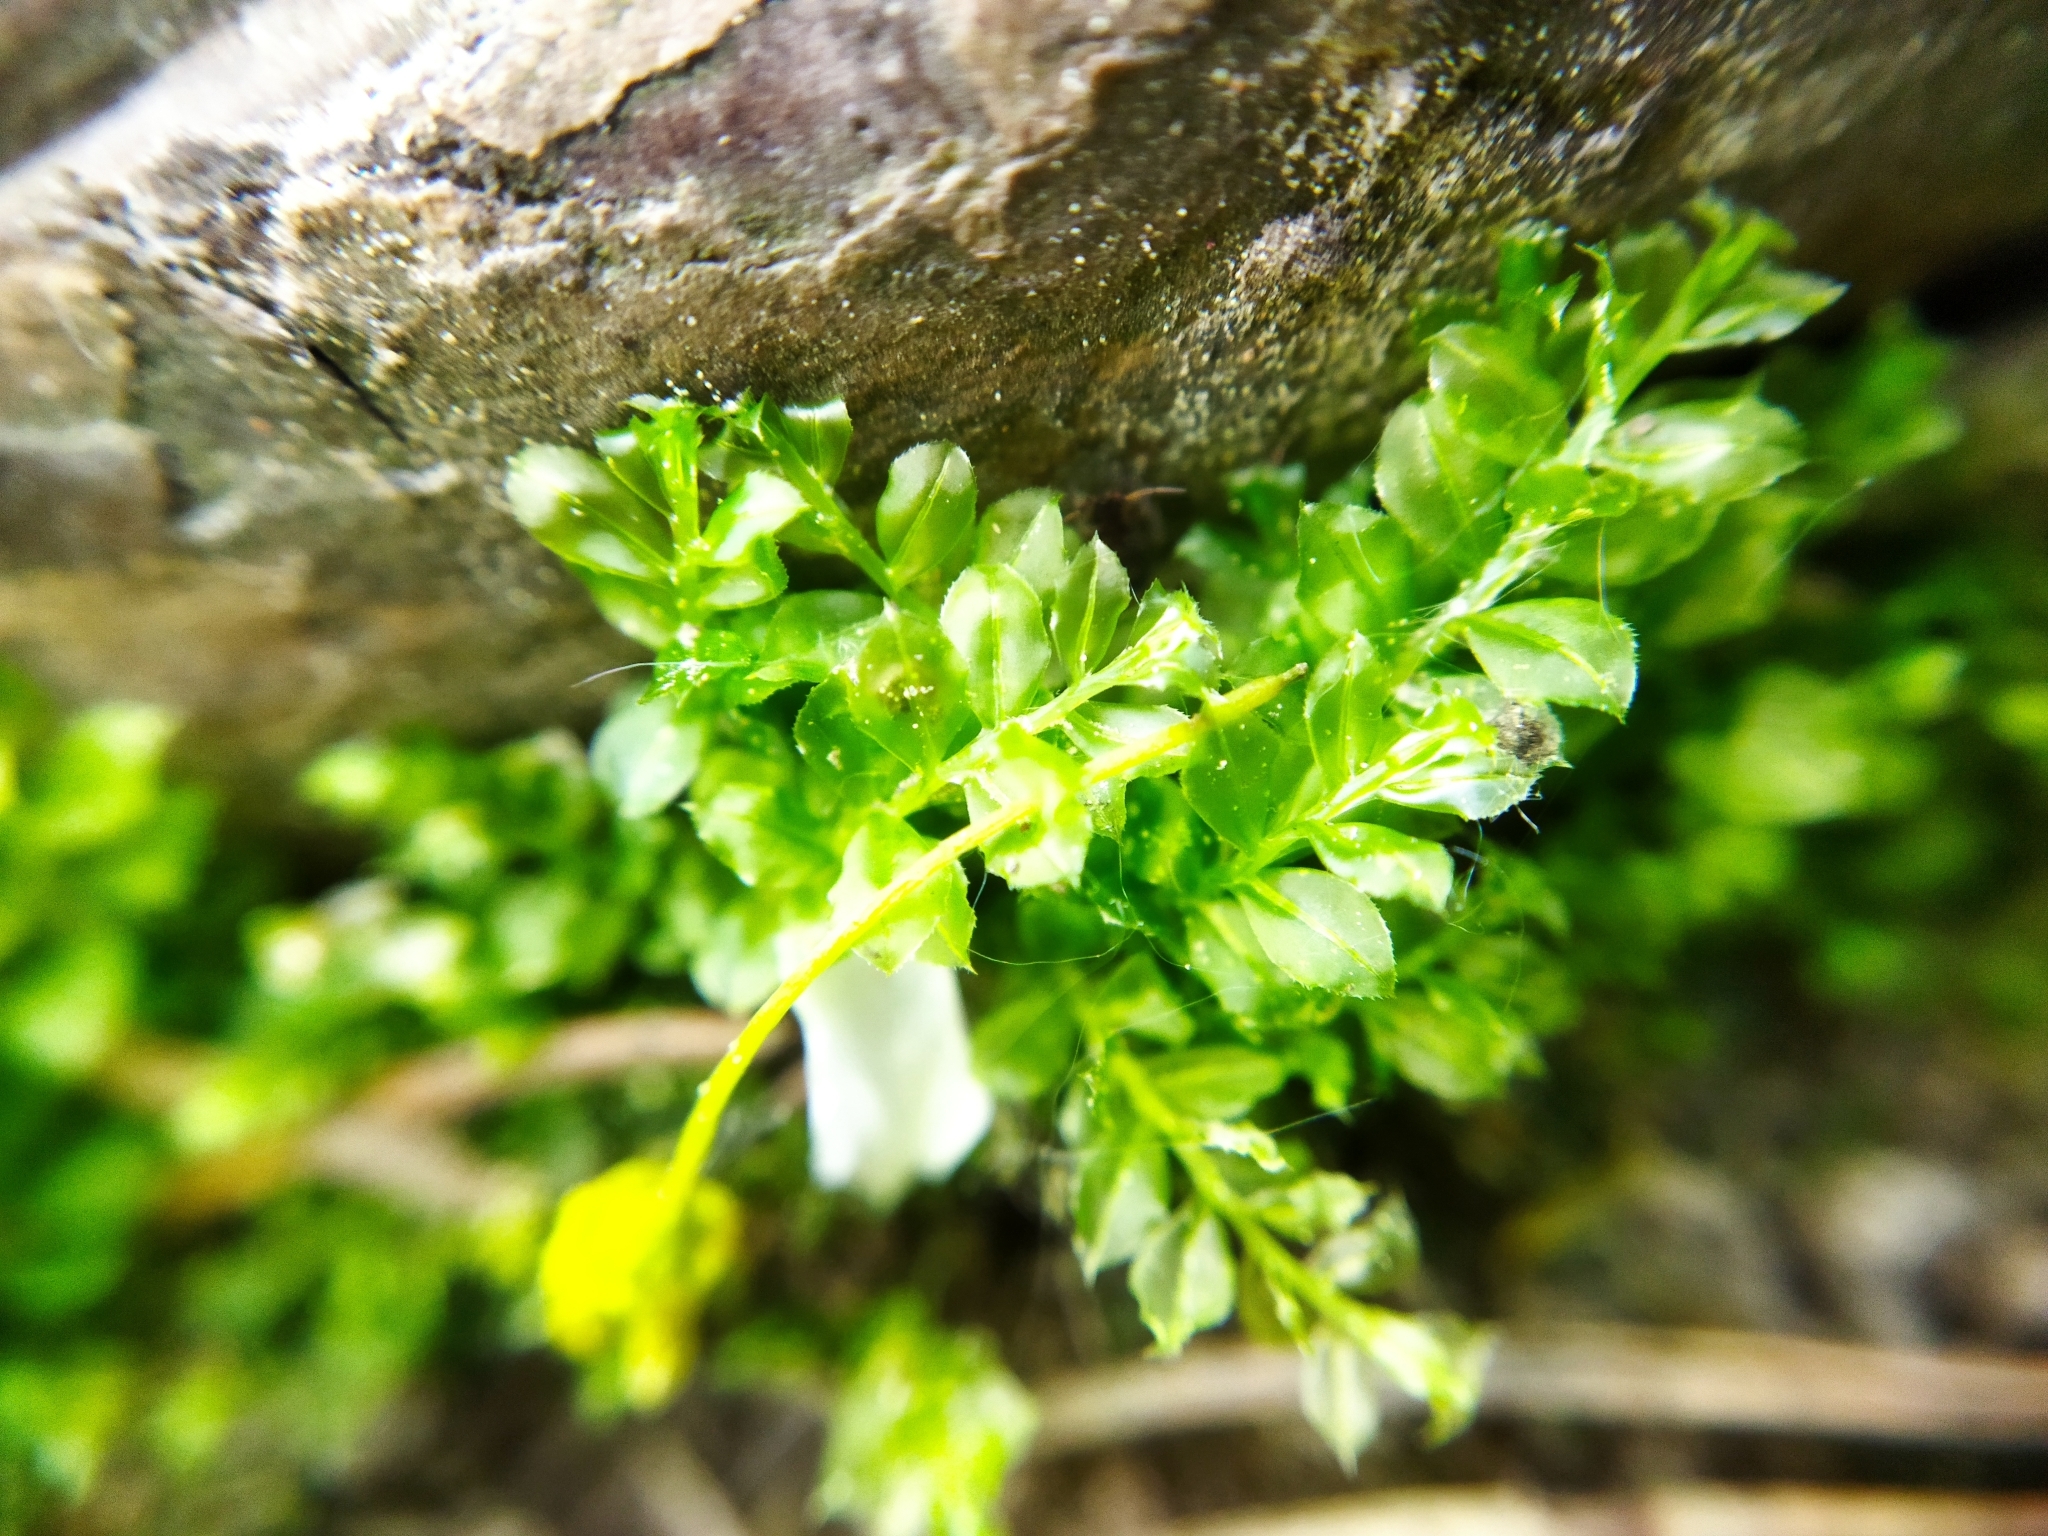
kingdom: Plantae
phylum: Bryophyta
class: Bryopsida
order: Bryales
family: Mniaceae
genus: Plagiomnium
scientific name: Plagiomnium cuspidatum
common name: Woodsy leafy moss
